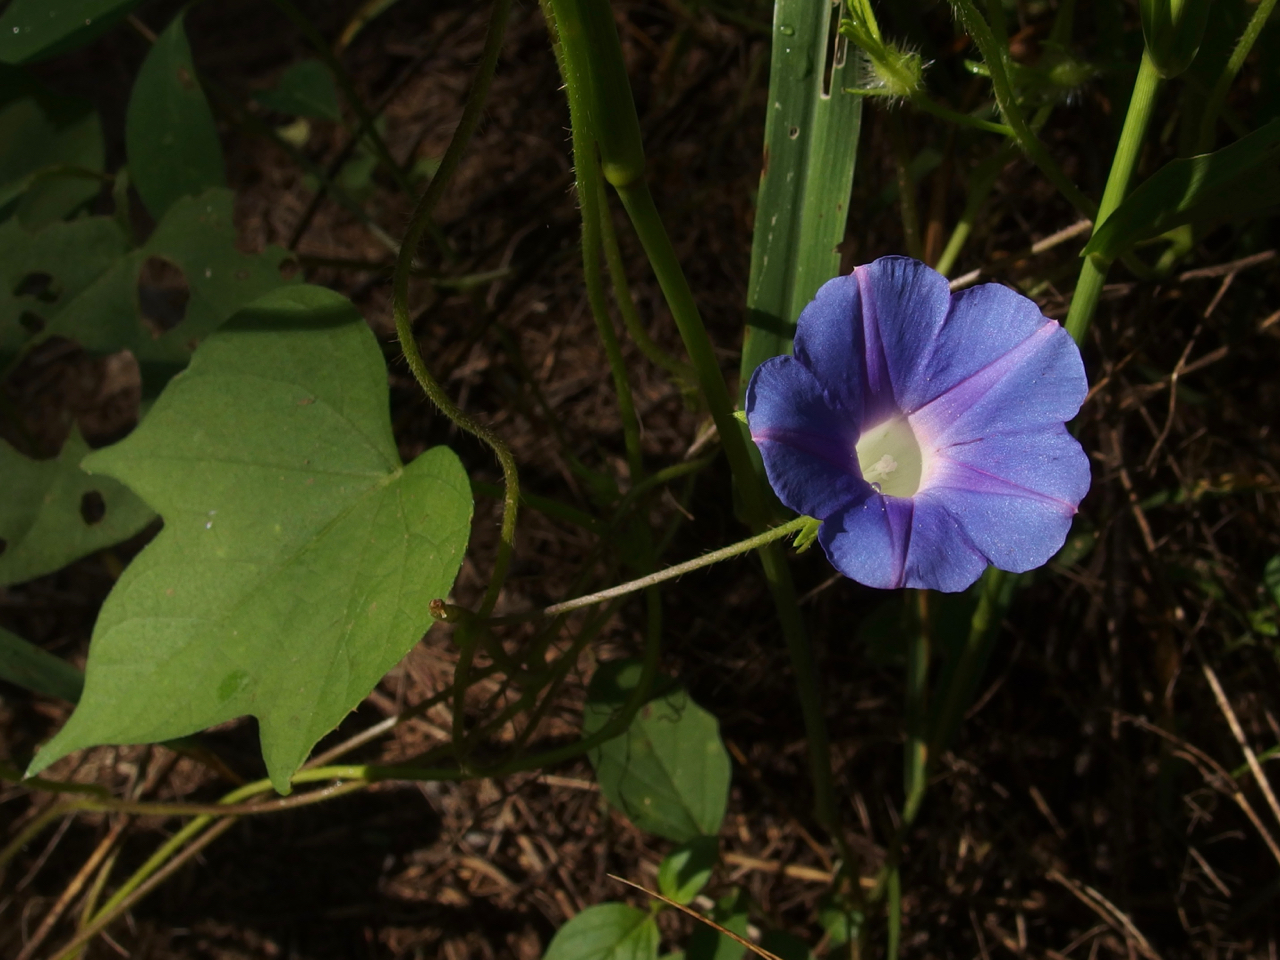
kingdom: Plantae
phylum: Tracheophyta
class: Magnoliopsida
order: Solanales
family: Convolvulaceae
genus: Ipomoea
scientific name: Ipomoea hederacea
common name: Ivy-leaved morning-glory
